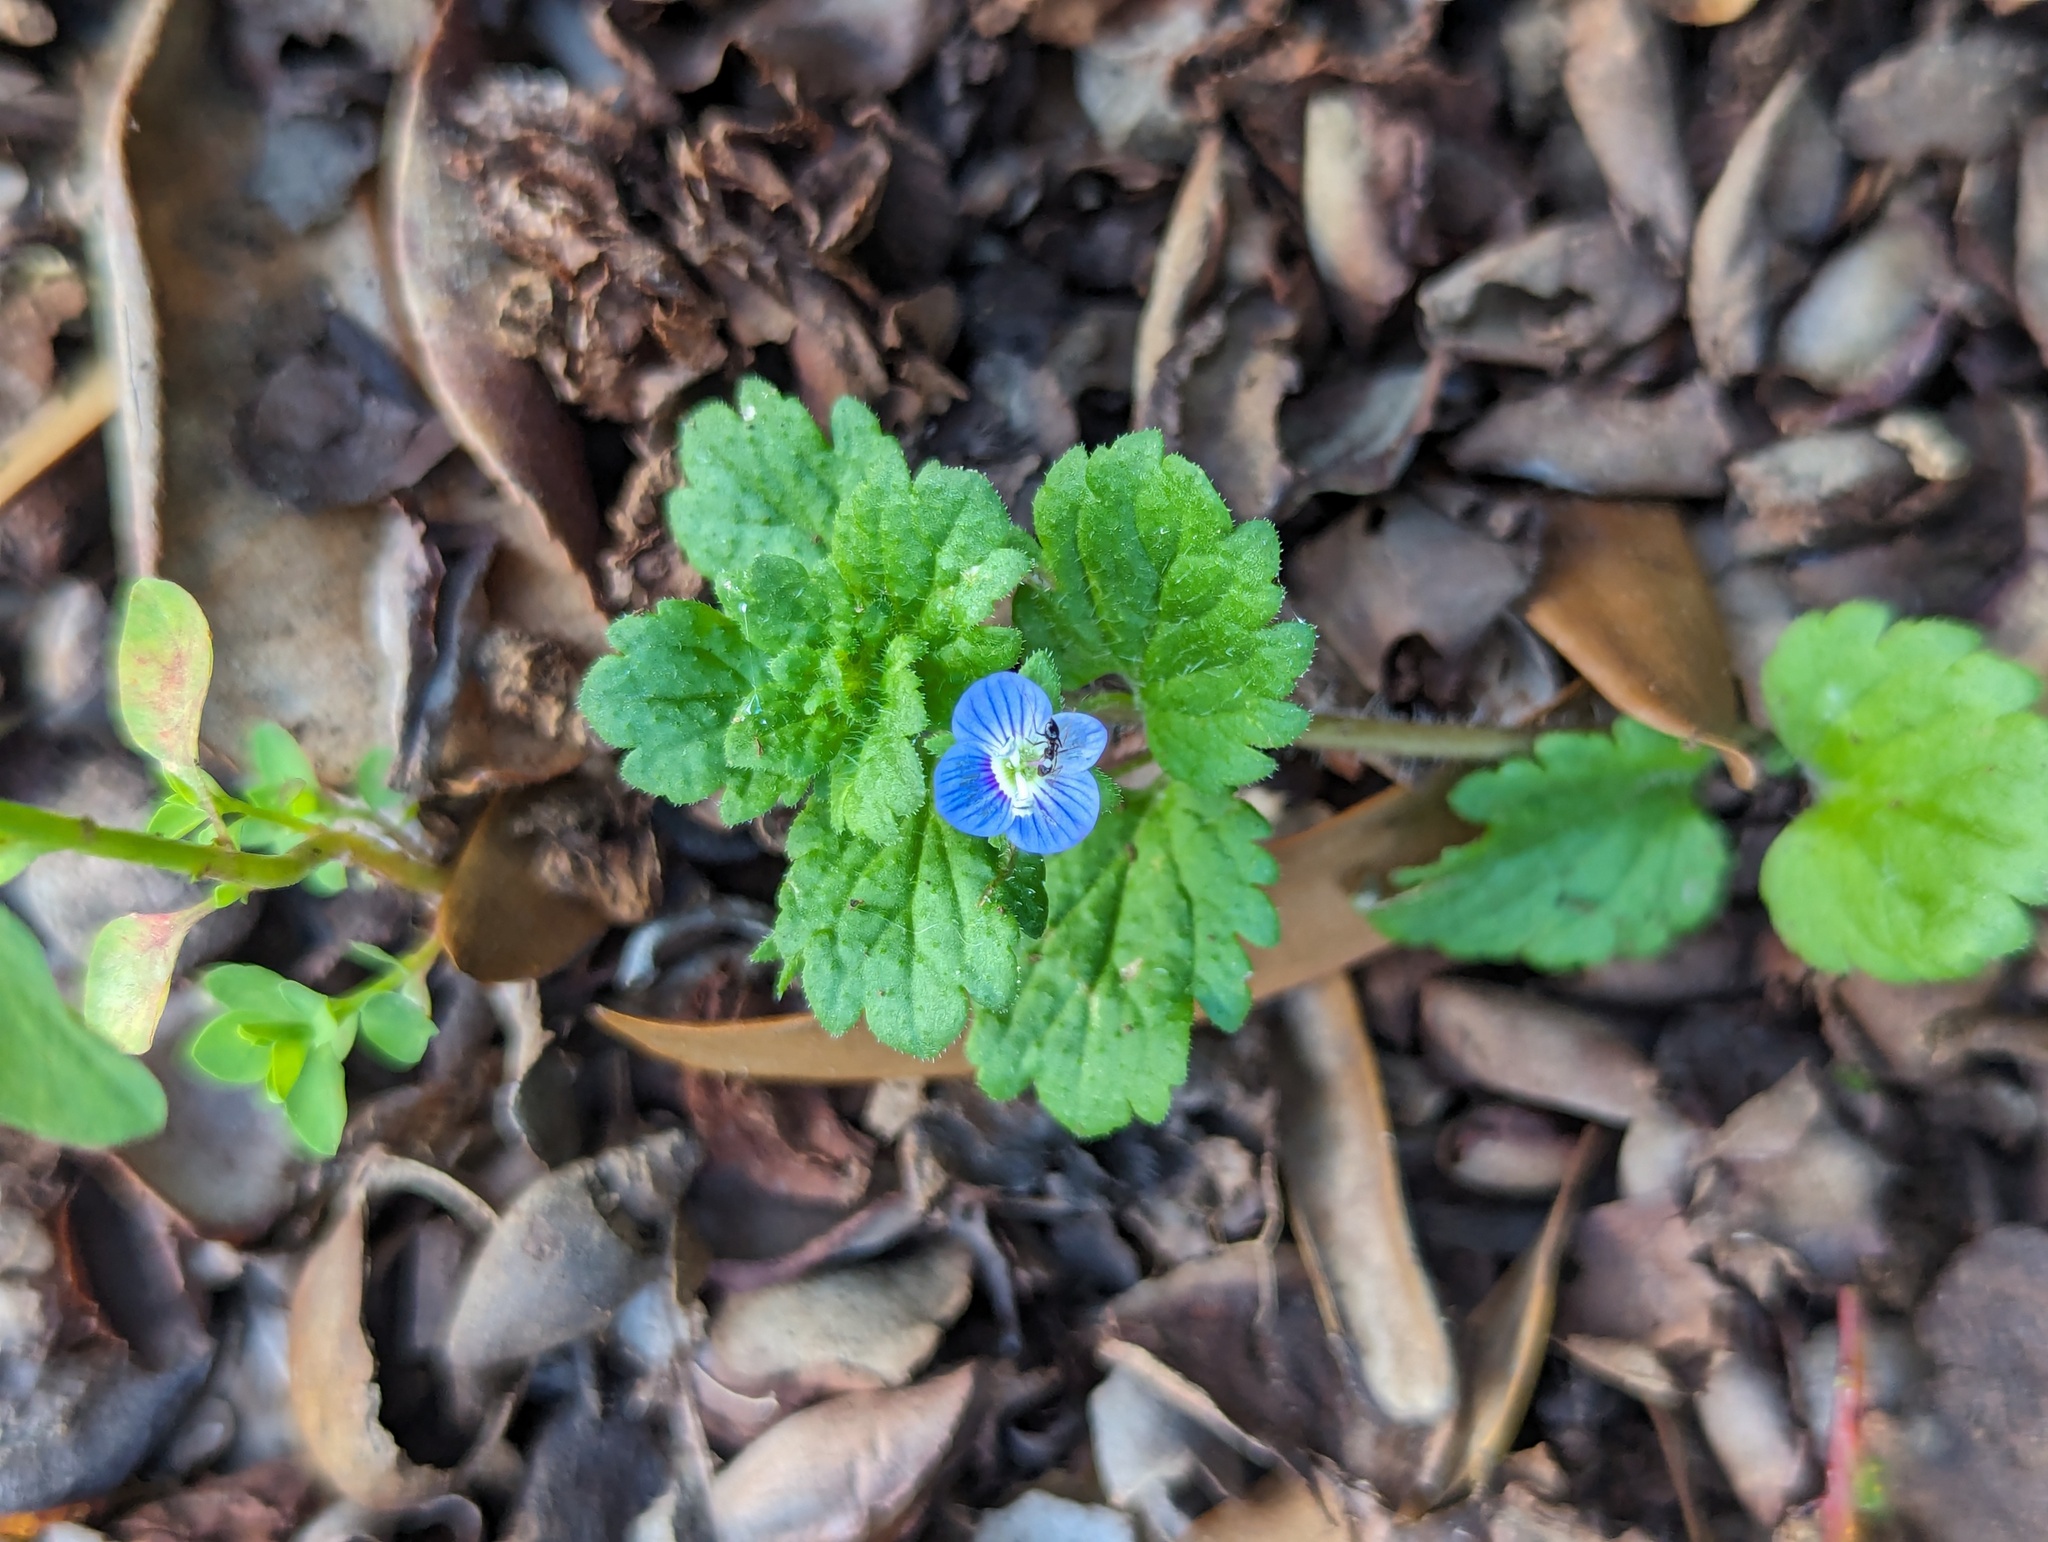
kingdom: Plantae
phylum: Tracheophyta
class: Magnoliopsida
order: Lamiales
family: Plantaginaceae
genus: Veronica
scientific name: Veronica persica
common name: Common field-speedwell
